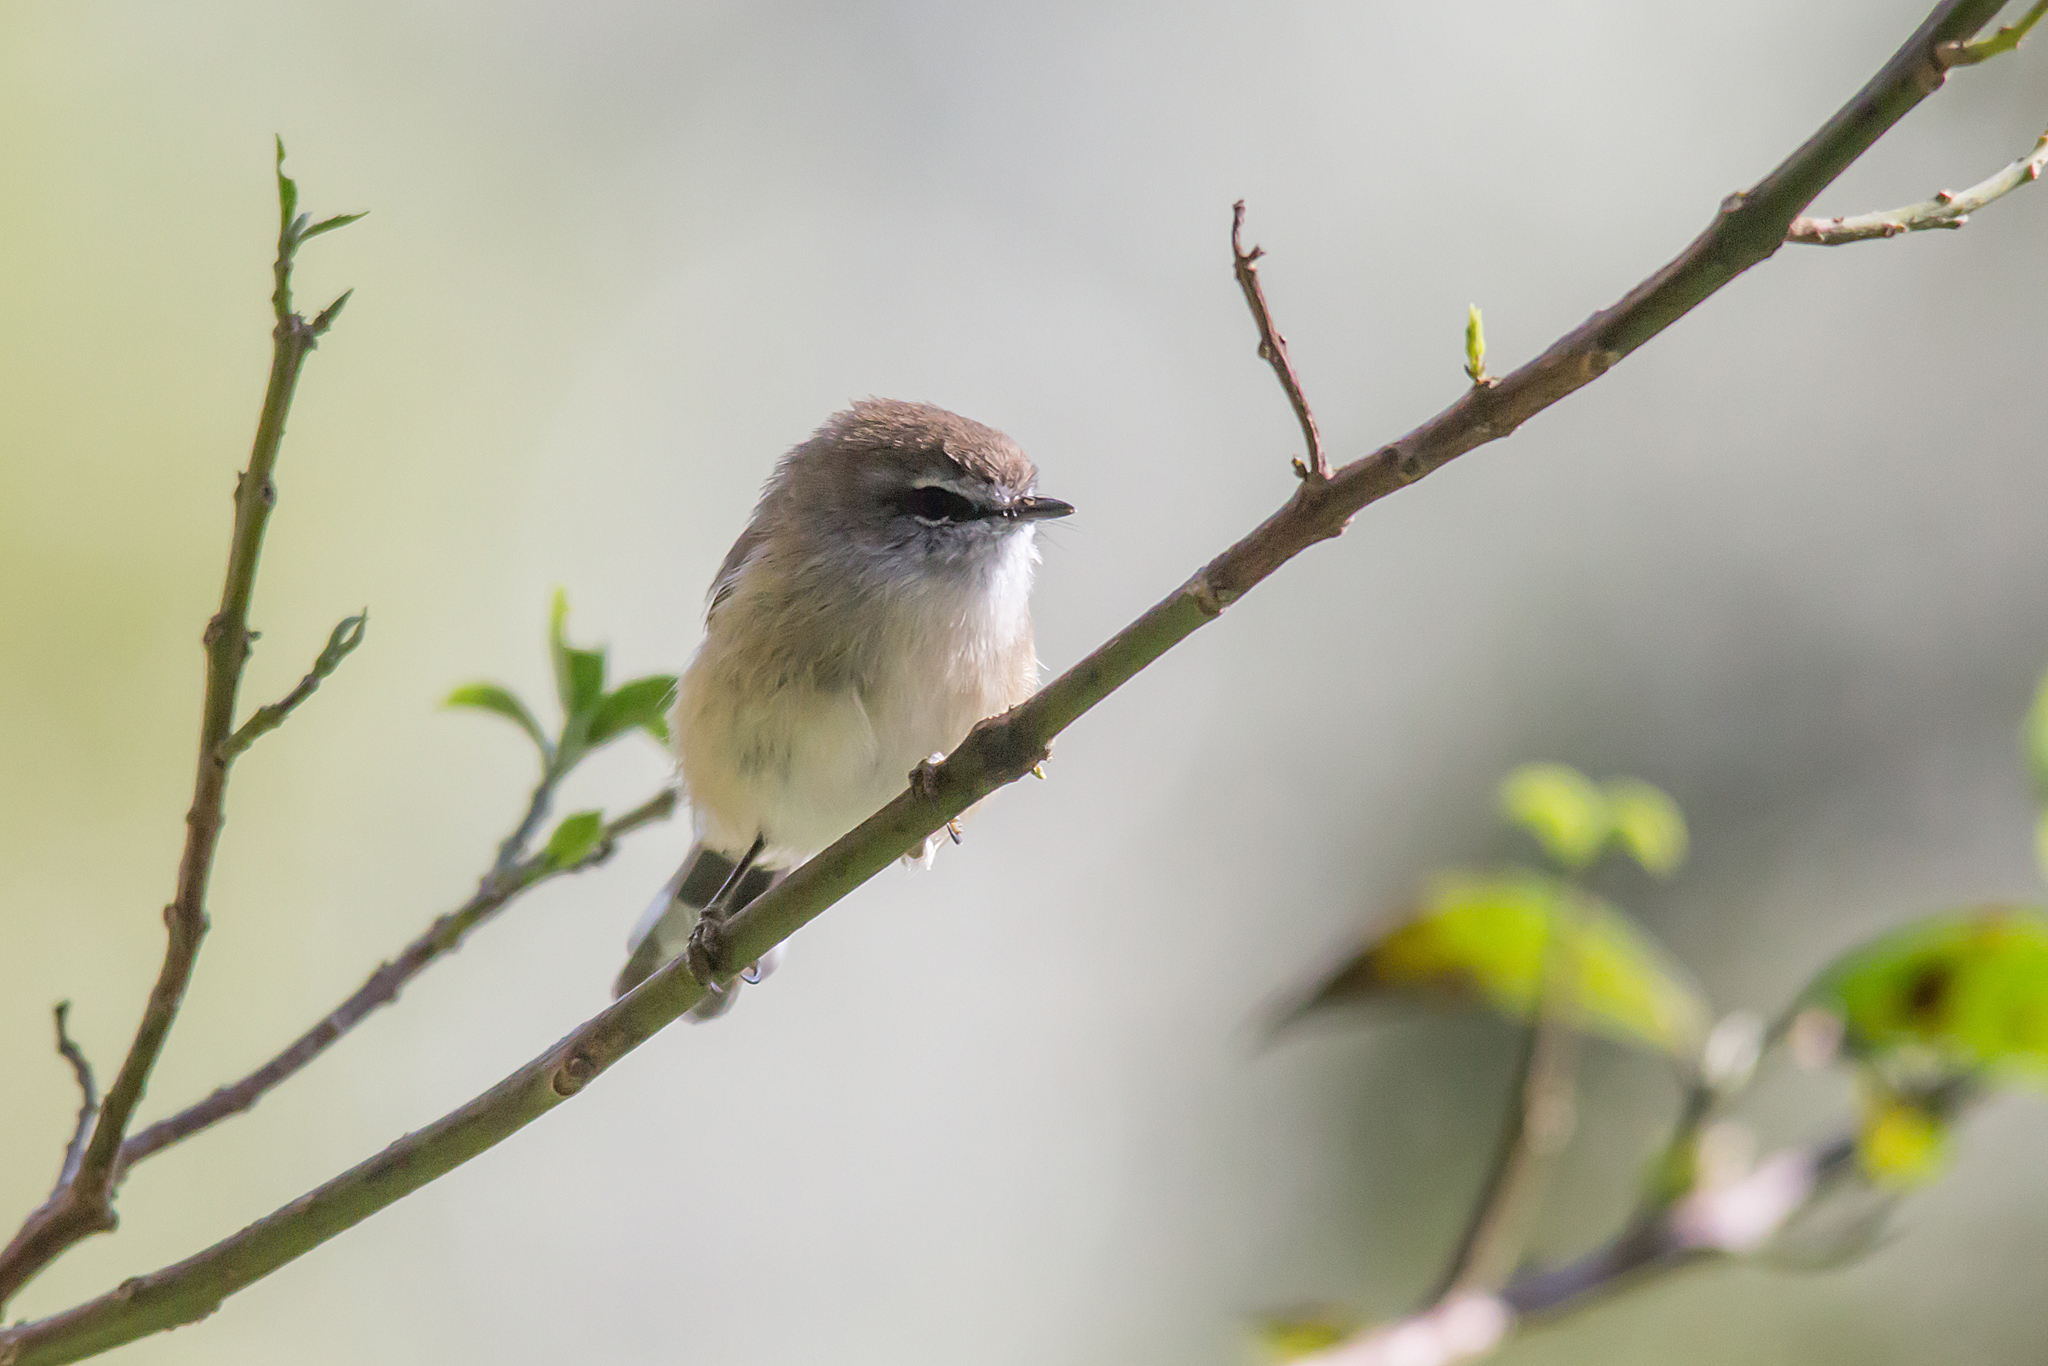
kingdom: Animalia
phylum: Chordata
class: Aves
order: Passeriformes
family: Acanthizidae
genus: Gerygone
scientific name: Gerygone mouki
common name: Brown gerygone
